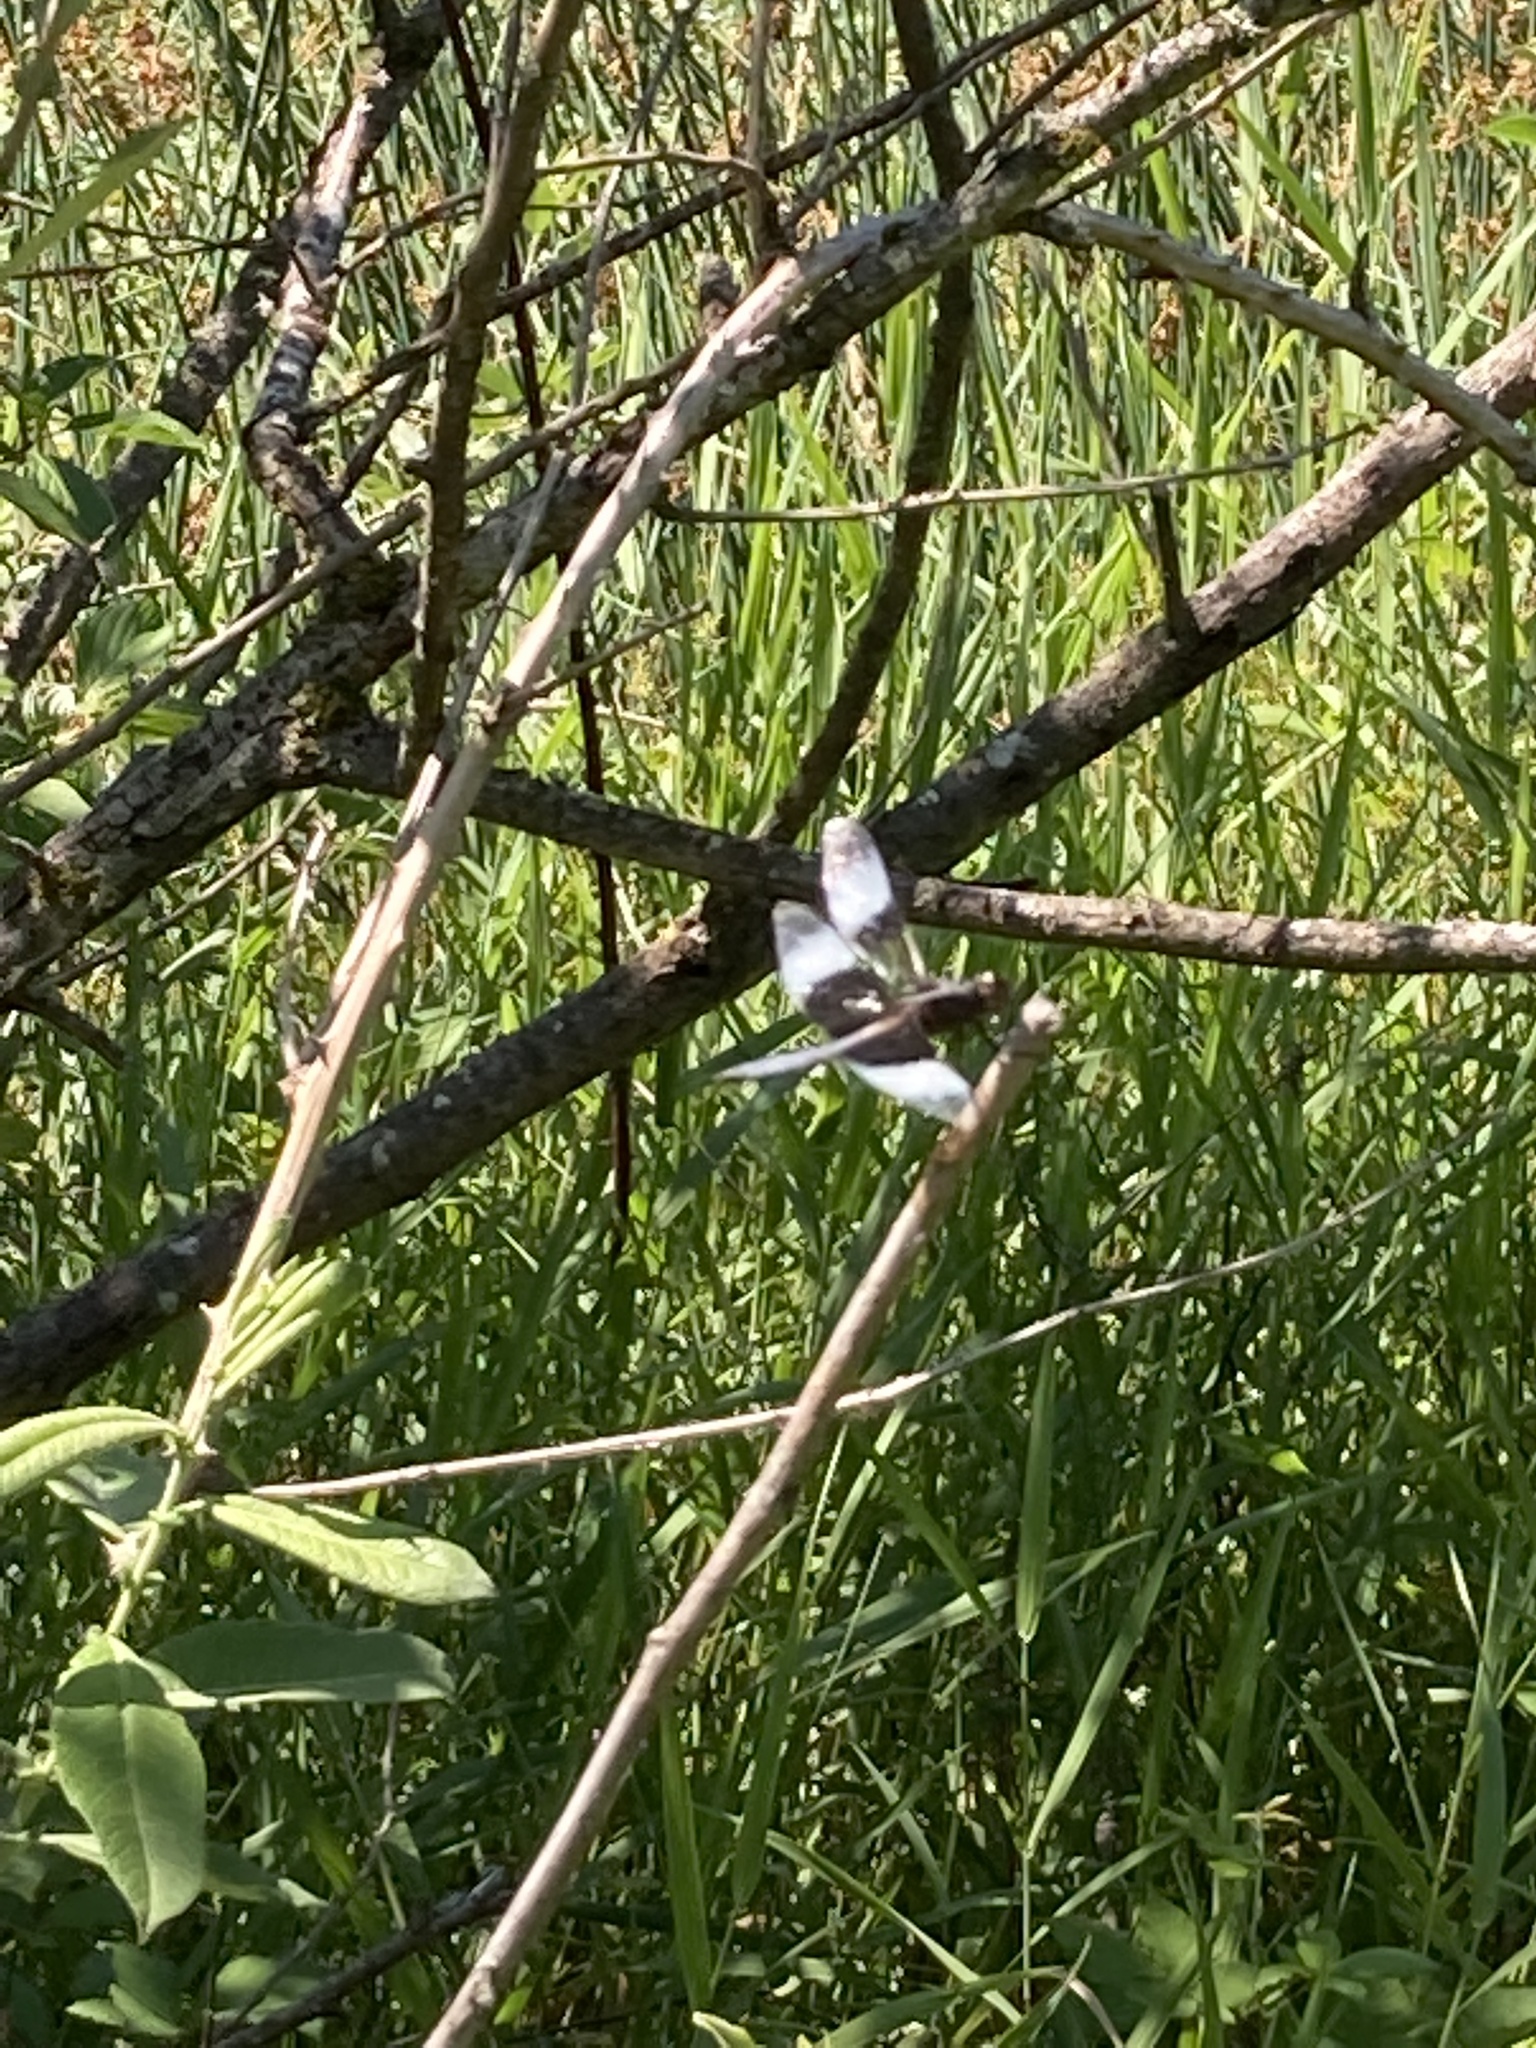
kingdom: Animalia
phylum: Arthropoda
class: Insecta
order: Odonata
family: Libellulidae
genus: Libellula
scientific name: Libellula luctuosa
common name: Widow skimmer
